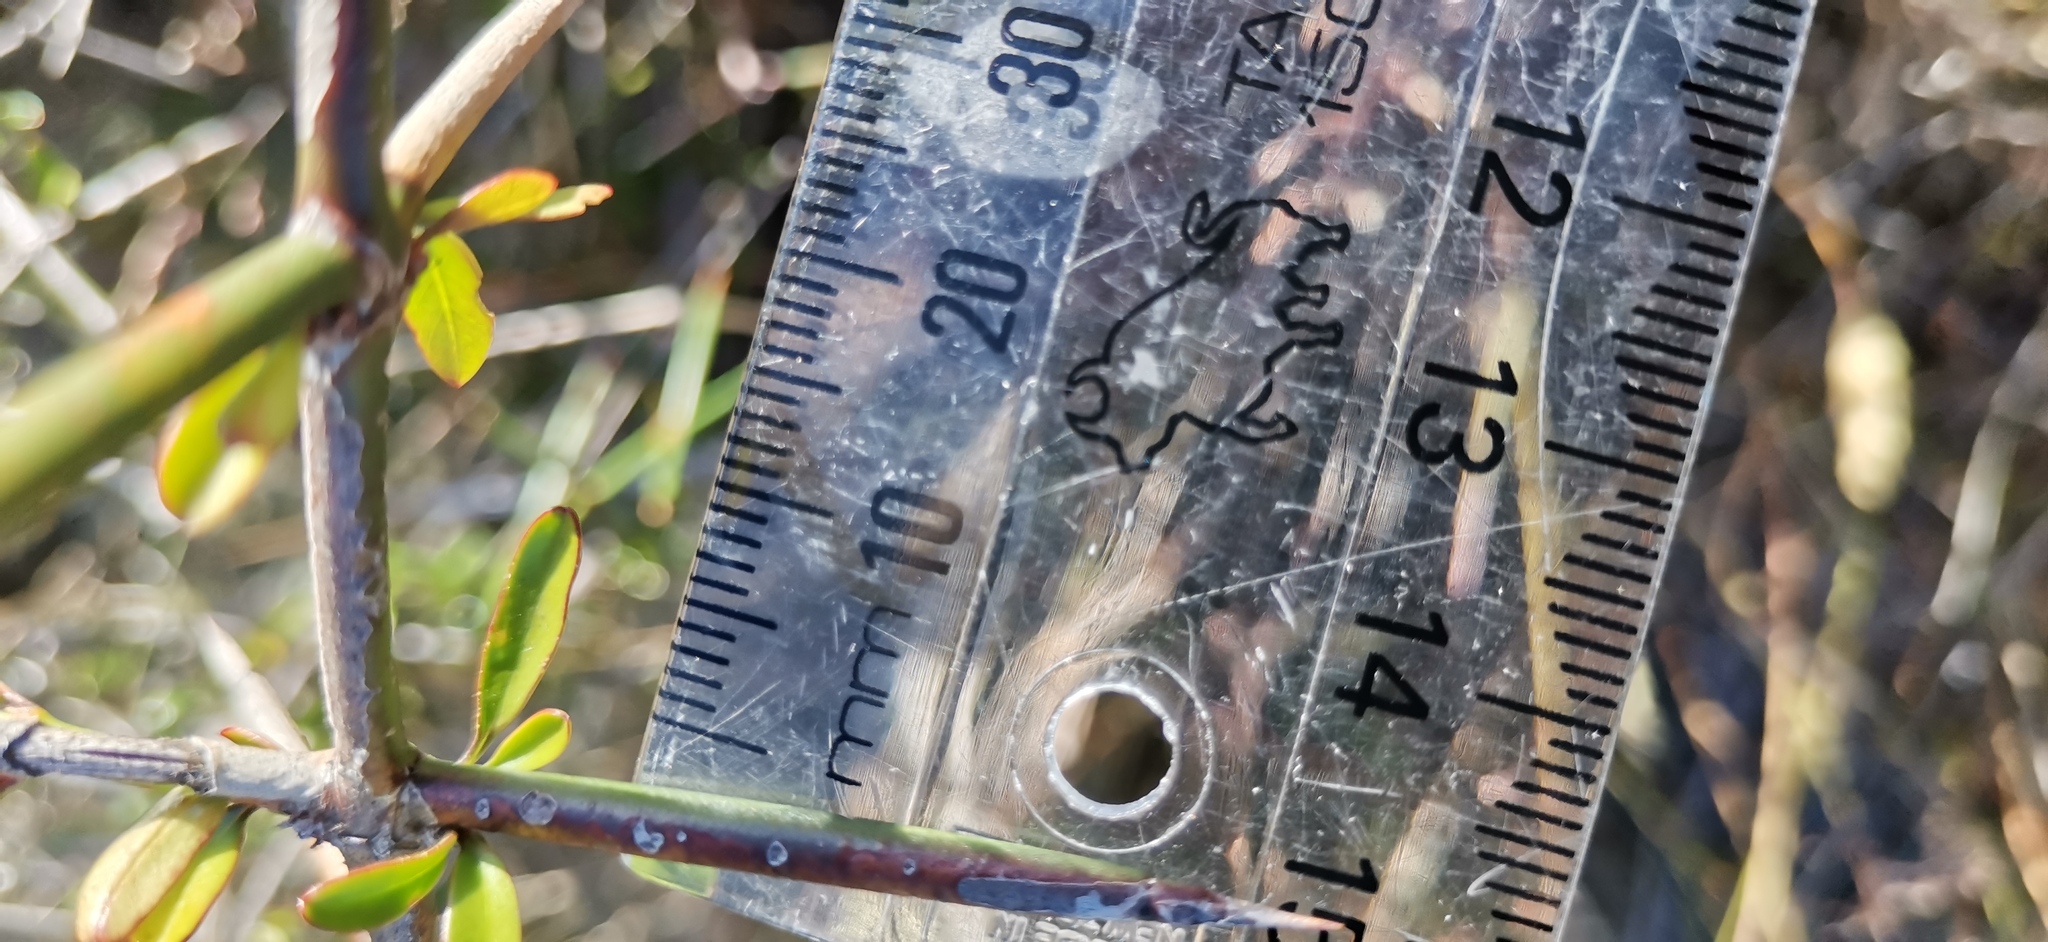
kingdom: Plantae
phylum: Tracheophyta
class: Magnoliopsida
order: Rosales
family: Rhamnaceae
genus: Discaria
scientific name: Discaria toumatou
